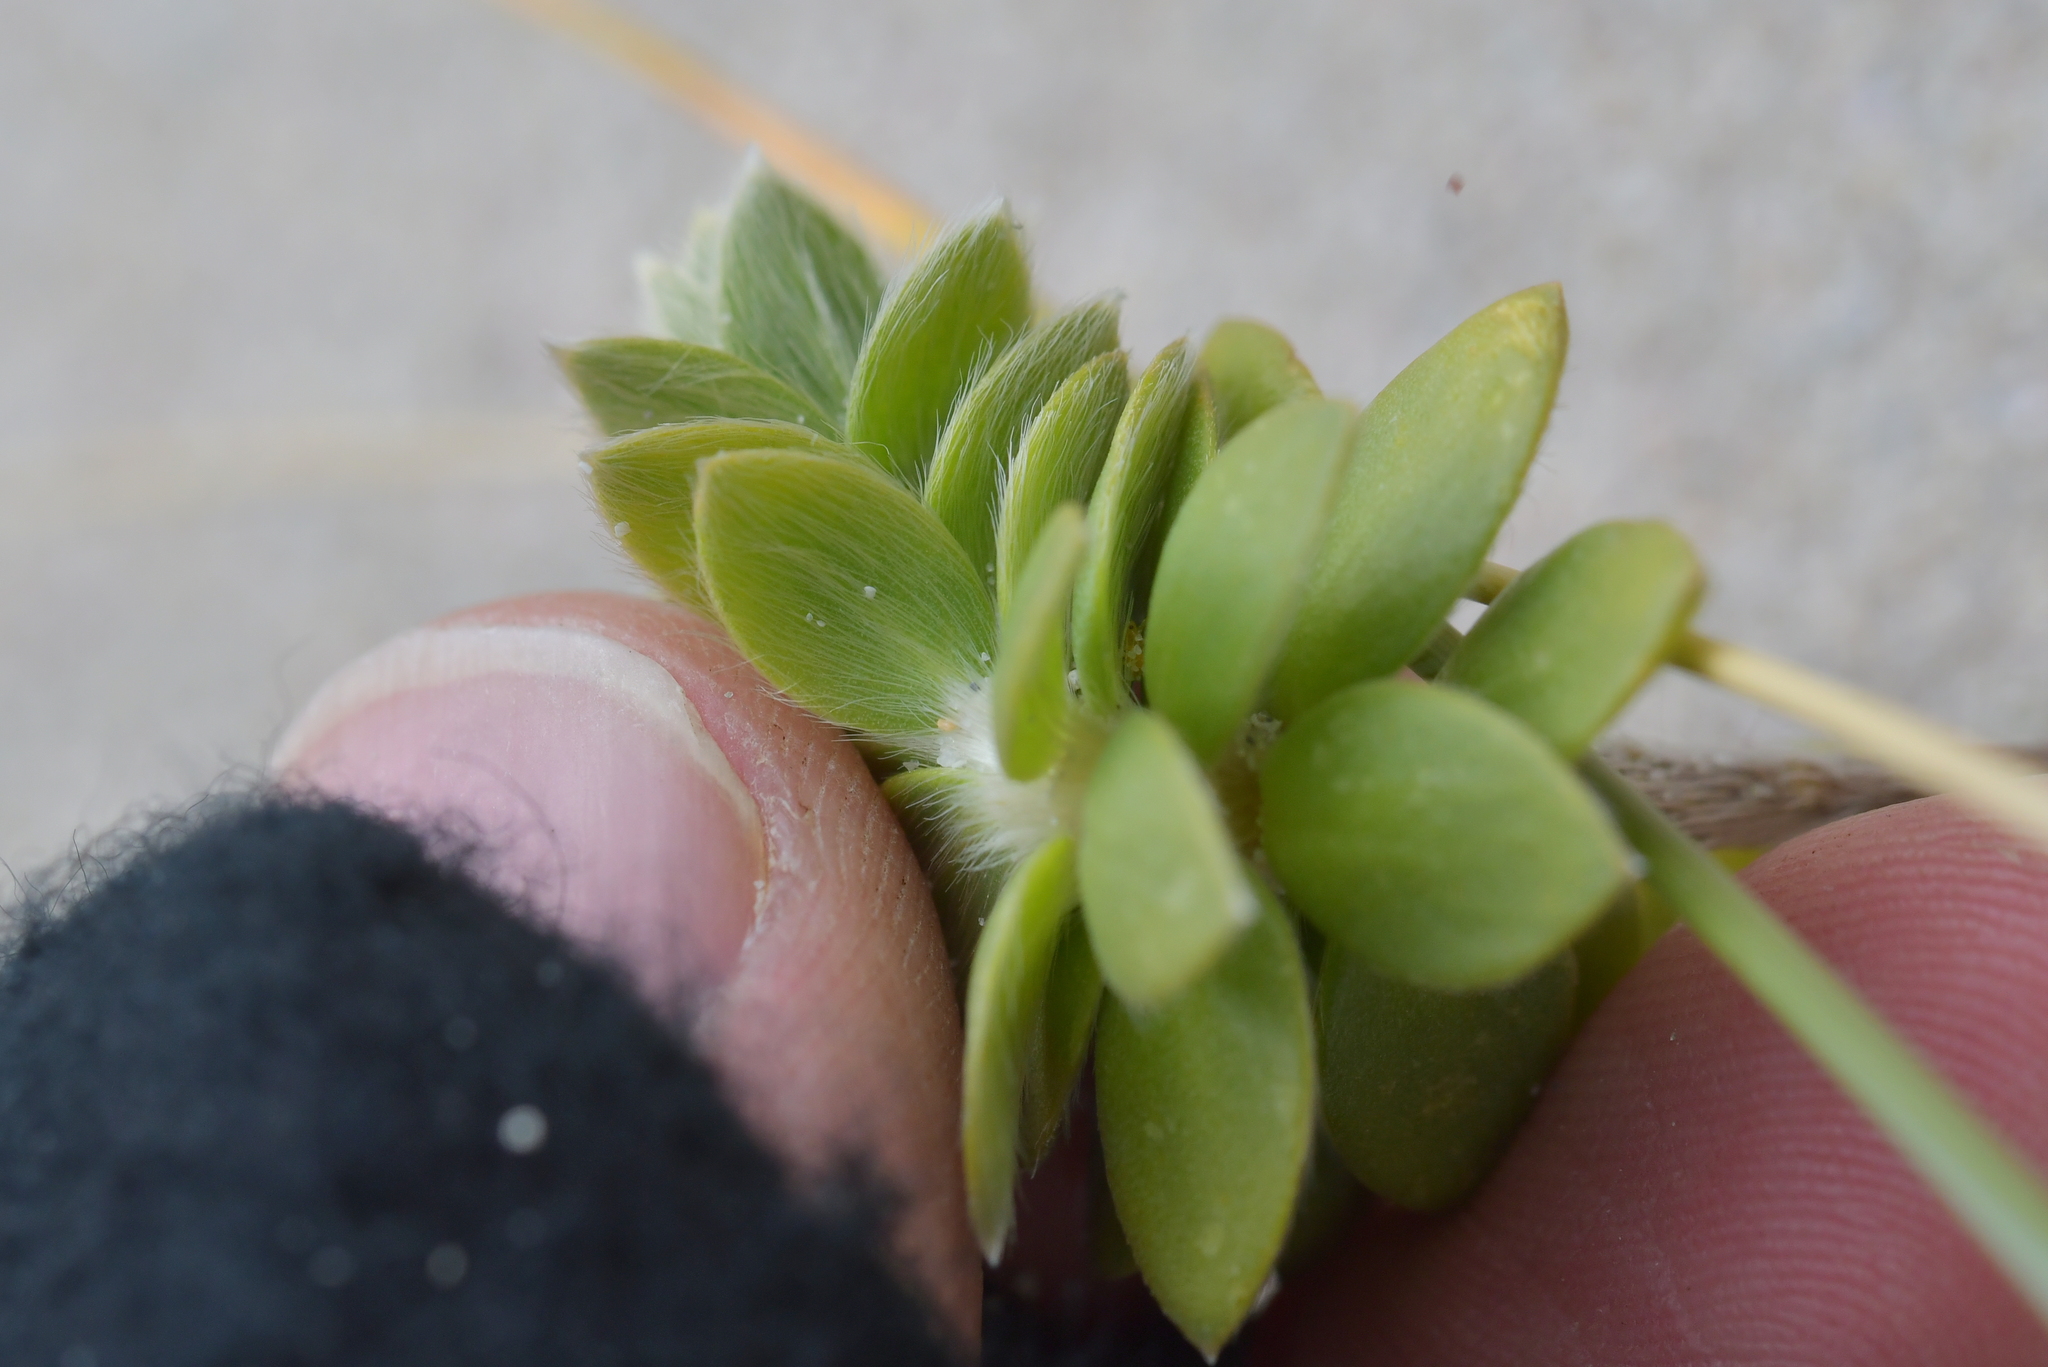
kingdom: Plantae
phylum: Tracheophyta
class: Magnoliopsida
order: Malvales
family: Thymelaeaceae
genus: Pimelea
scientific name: Pimelea villosa
